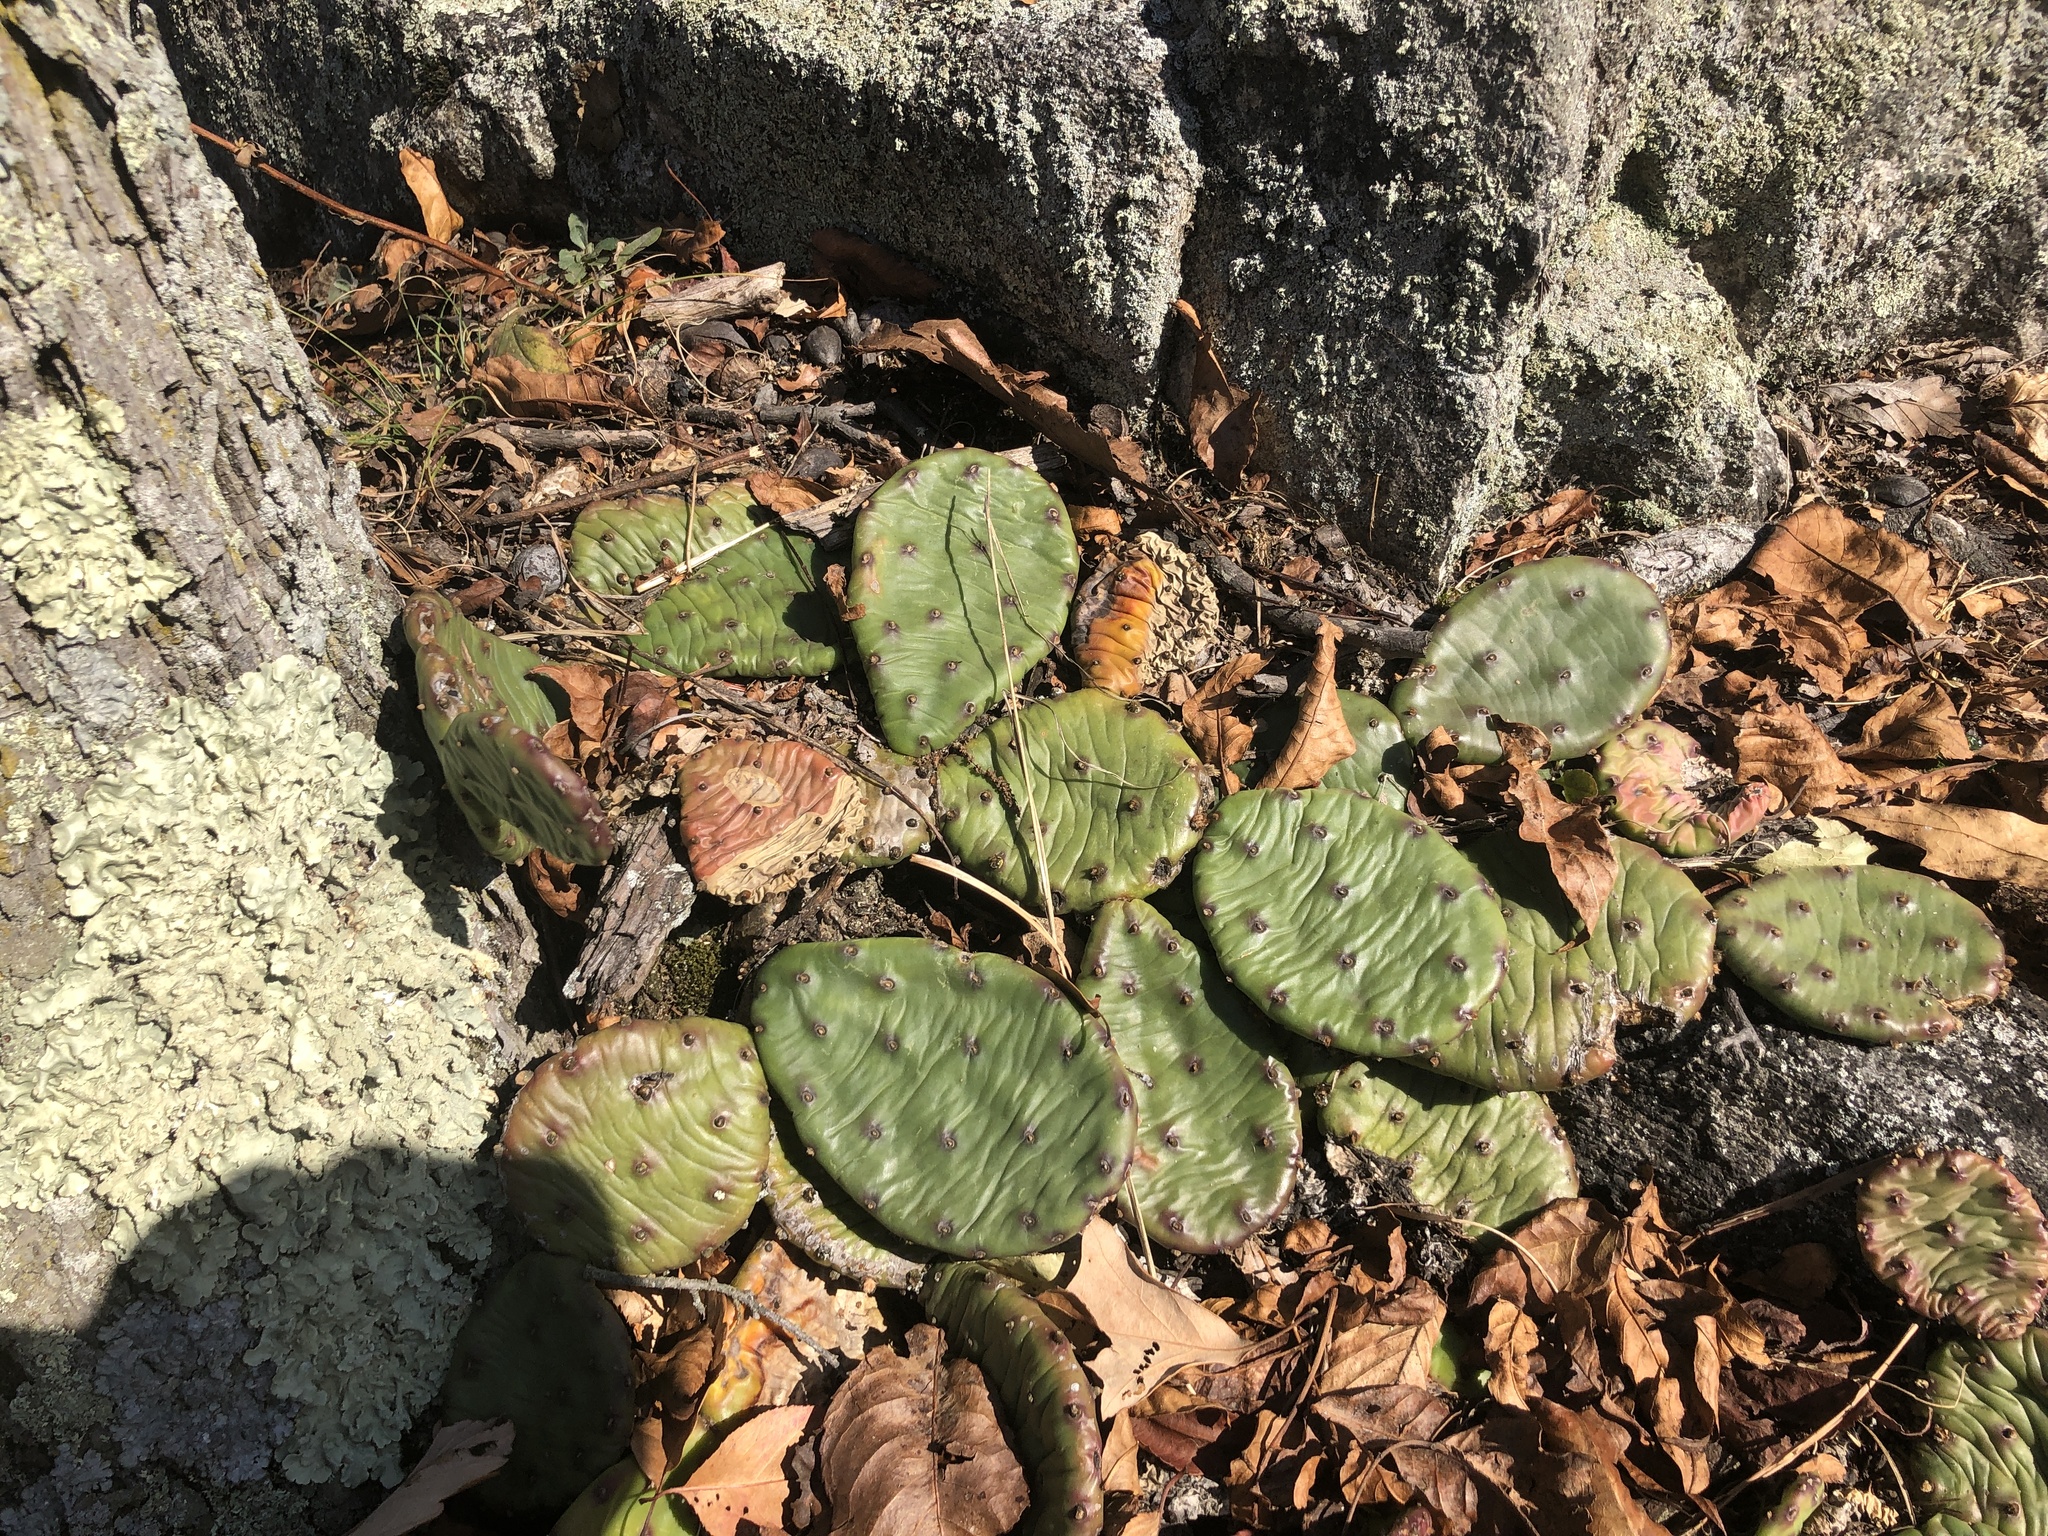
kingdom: Plantae
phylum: Tracheophyta
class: Magnoliopsida
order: Caryophyllales
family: Cactaceae
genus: Opuntia
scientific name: Opuntia humifusa
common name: Eastern prickly-pear
